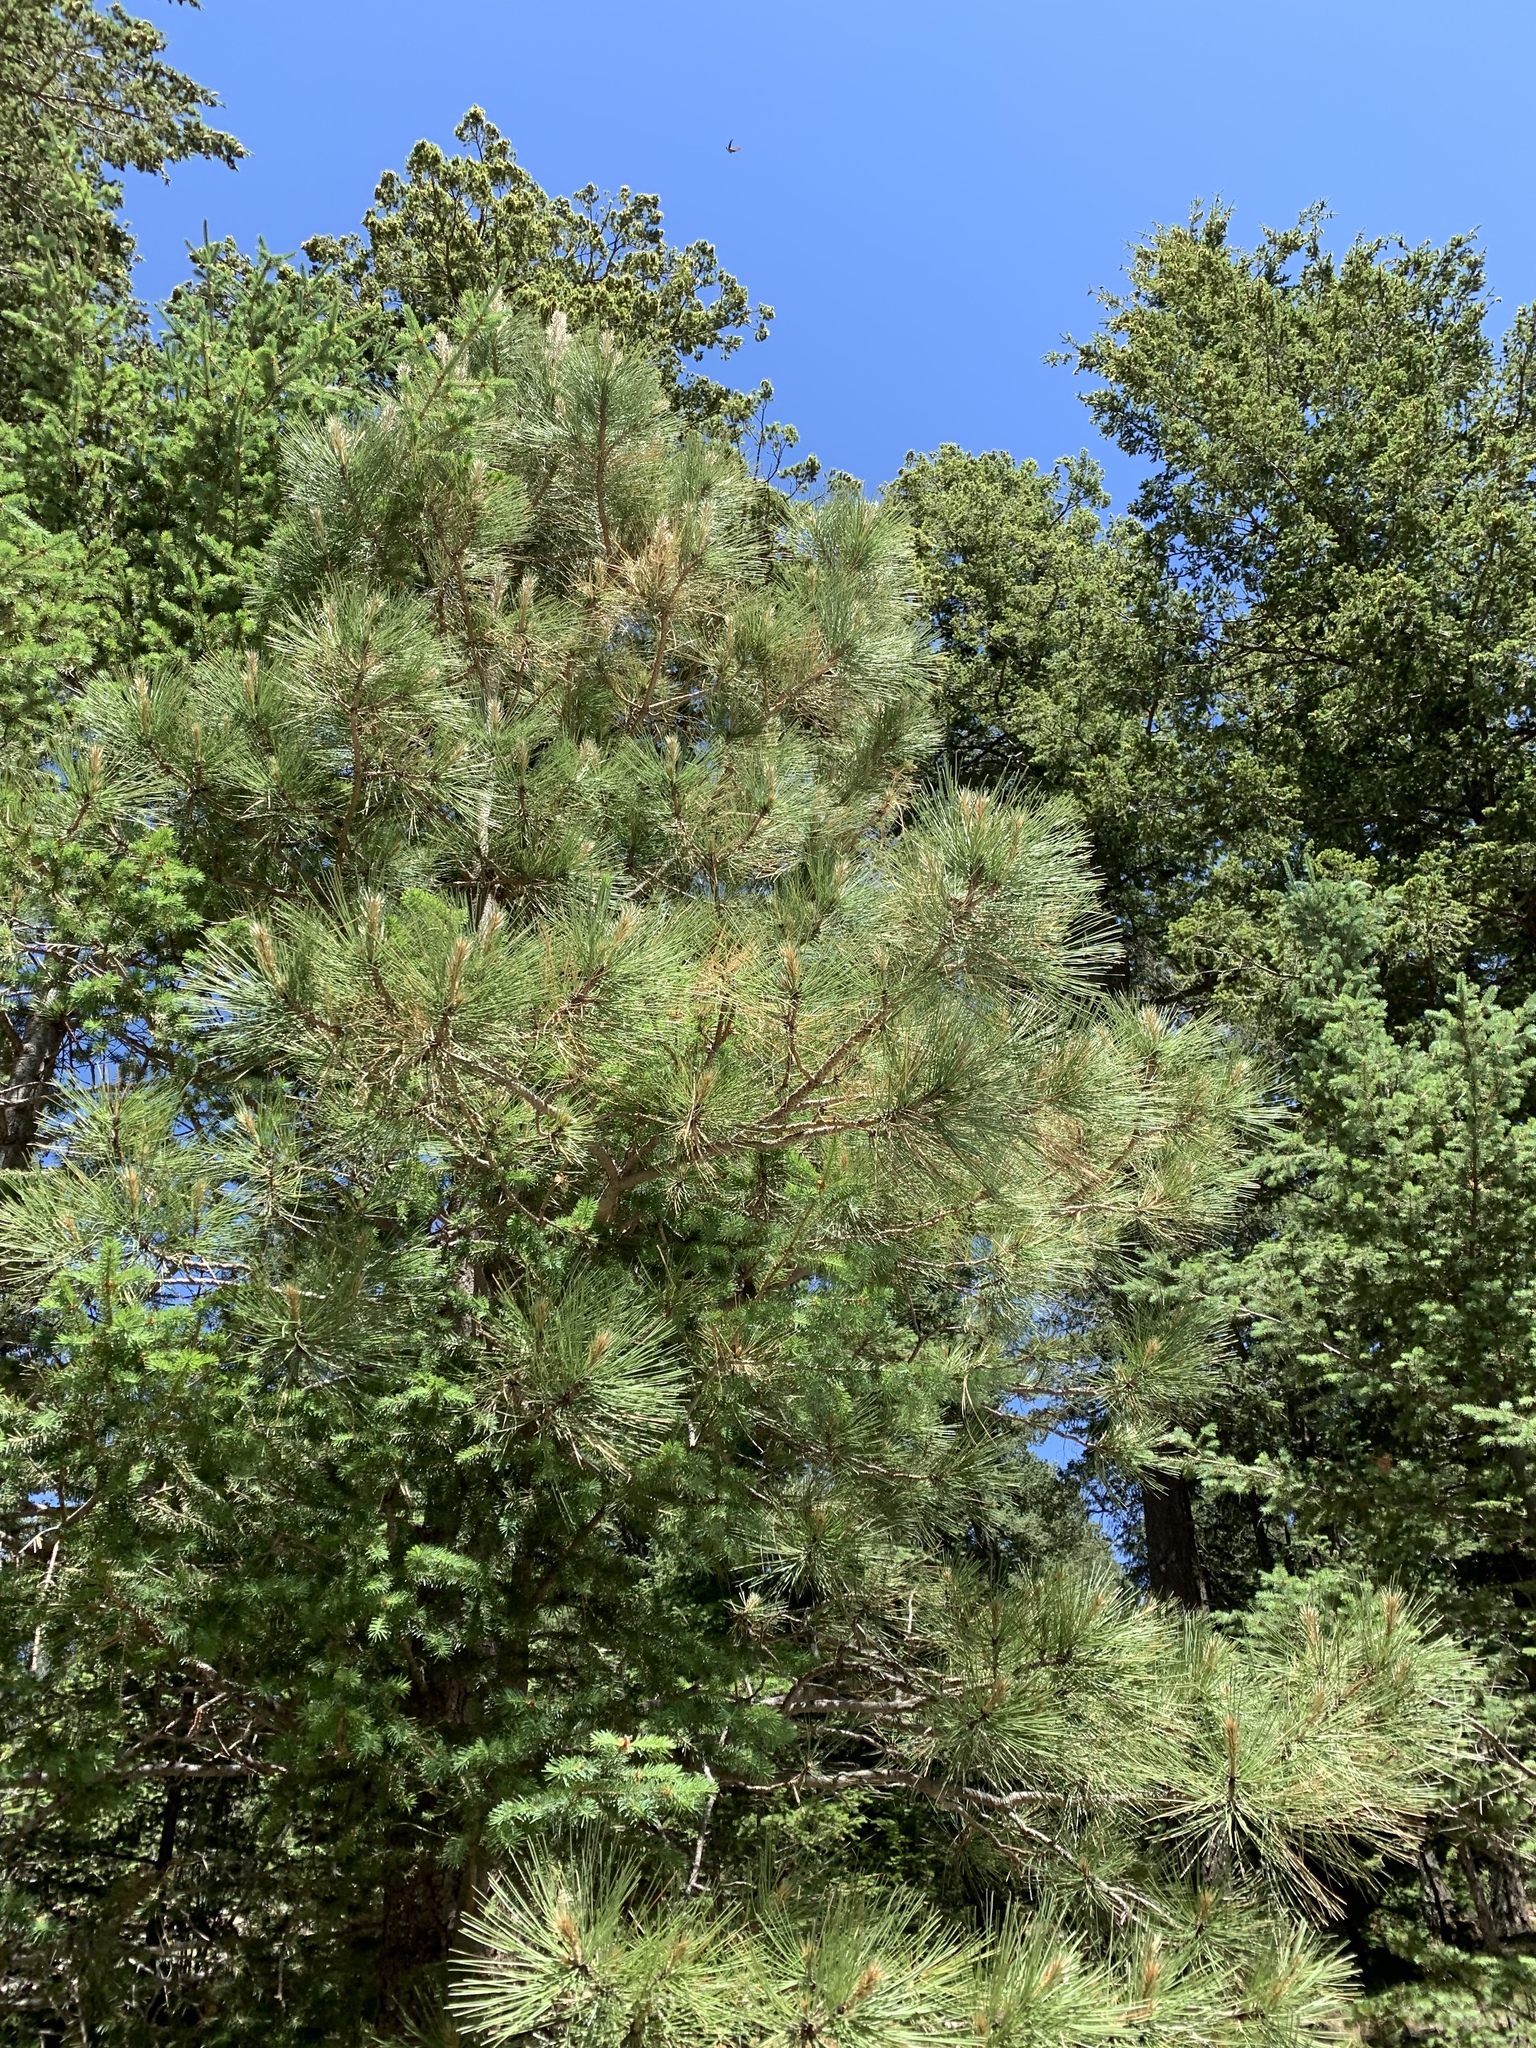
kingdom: Plantae
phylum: Tracheophyta
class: Pinopsida
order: Pinales
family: Pinaceae
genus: Pinus
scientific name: Pinus ponderosa
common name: Western yellow-pine
